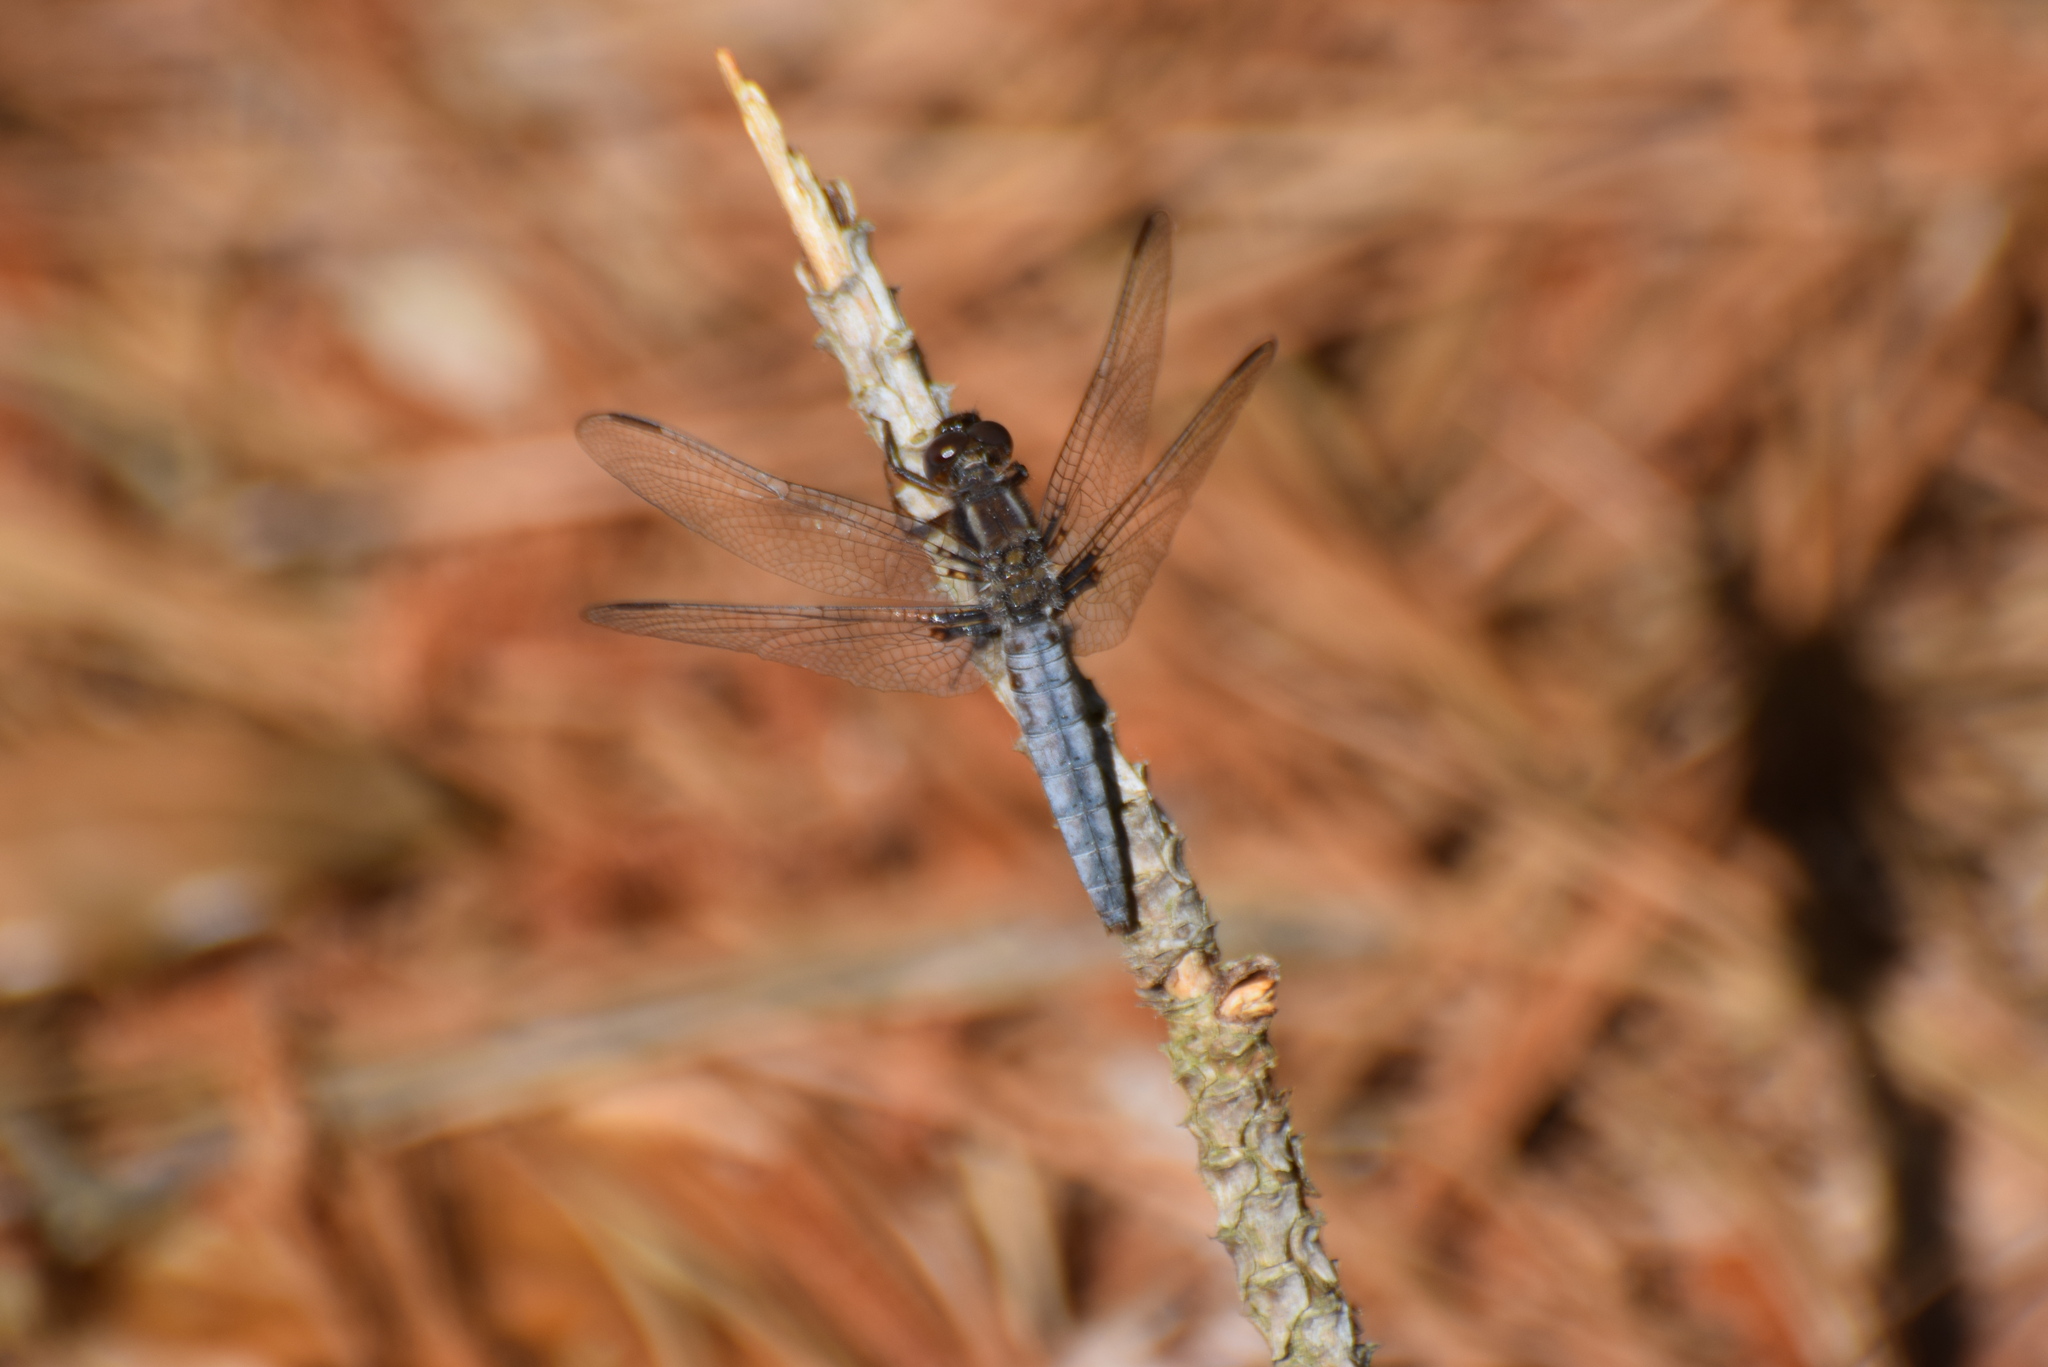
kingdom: Animalia
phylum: Arthropoda
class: Insecta
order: Odonata
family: Libellulidae
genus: Ladona
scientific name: Ladona deplanata
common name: Blue corporal
